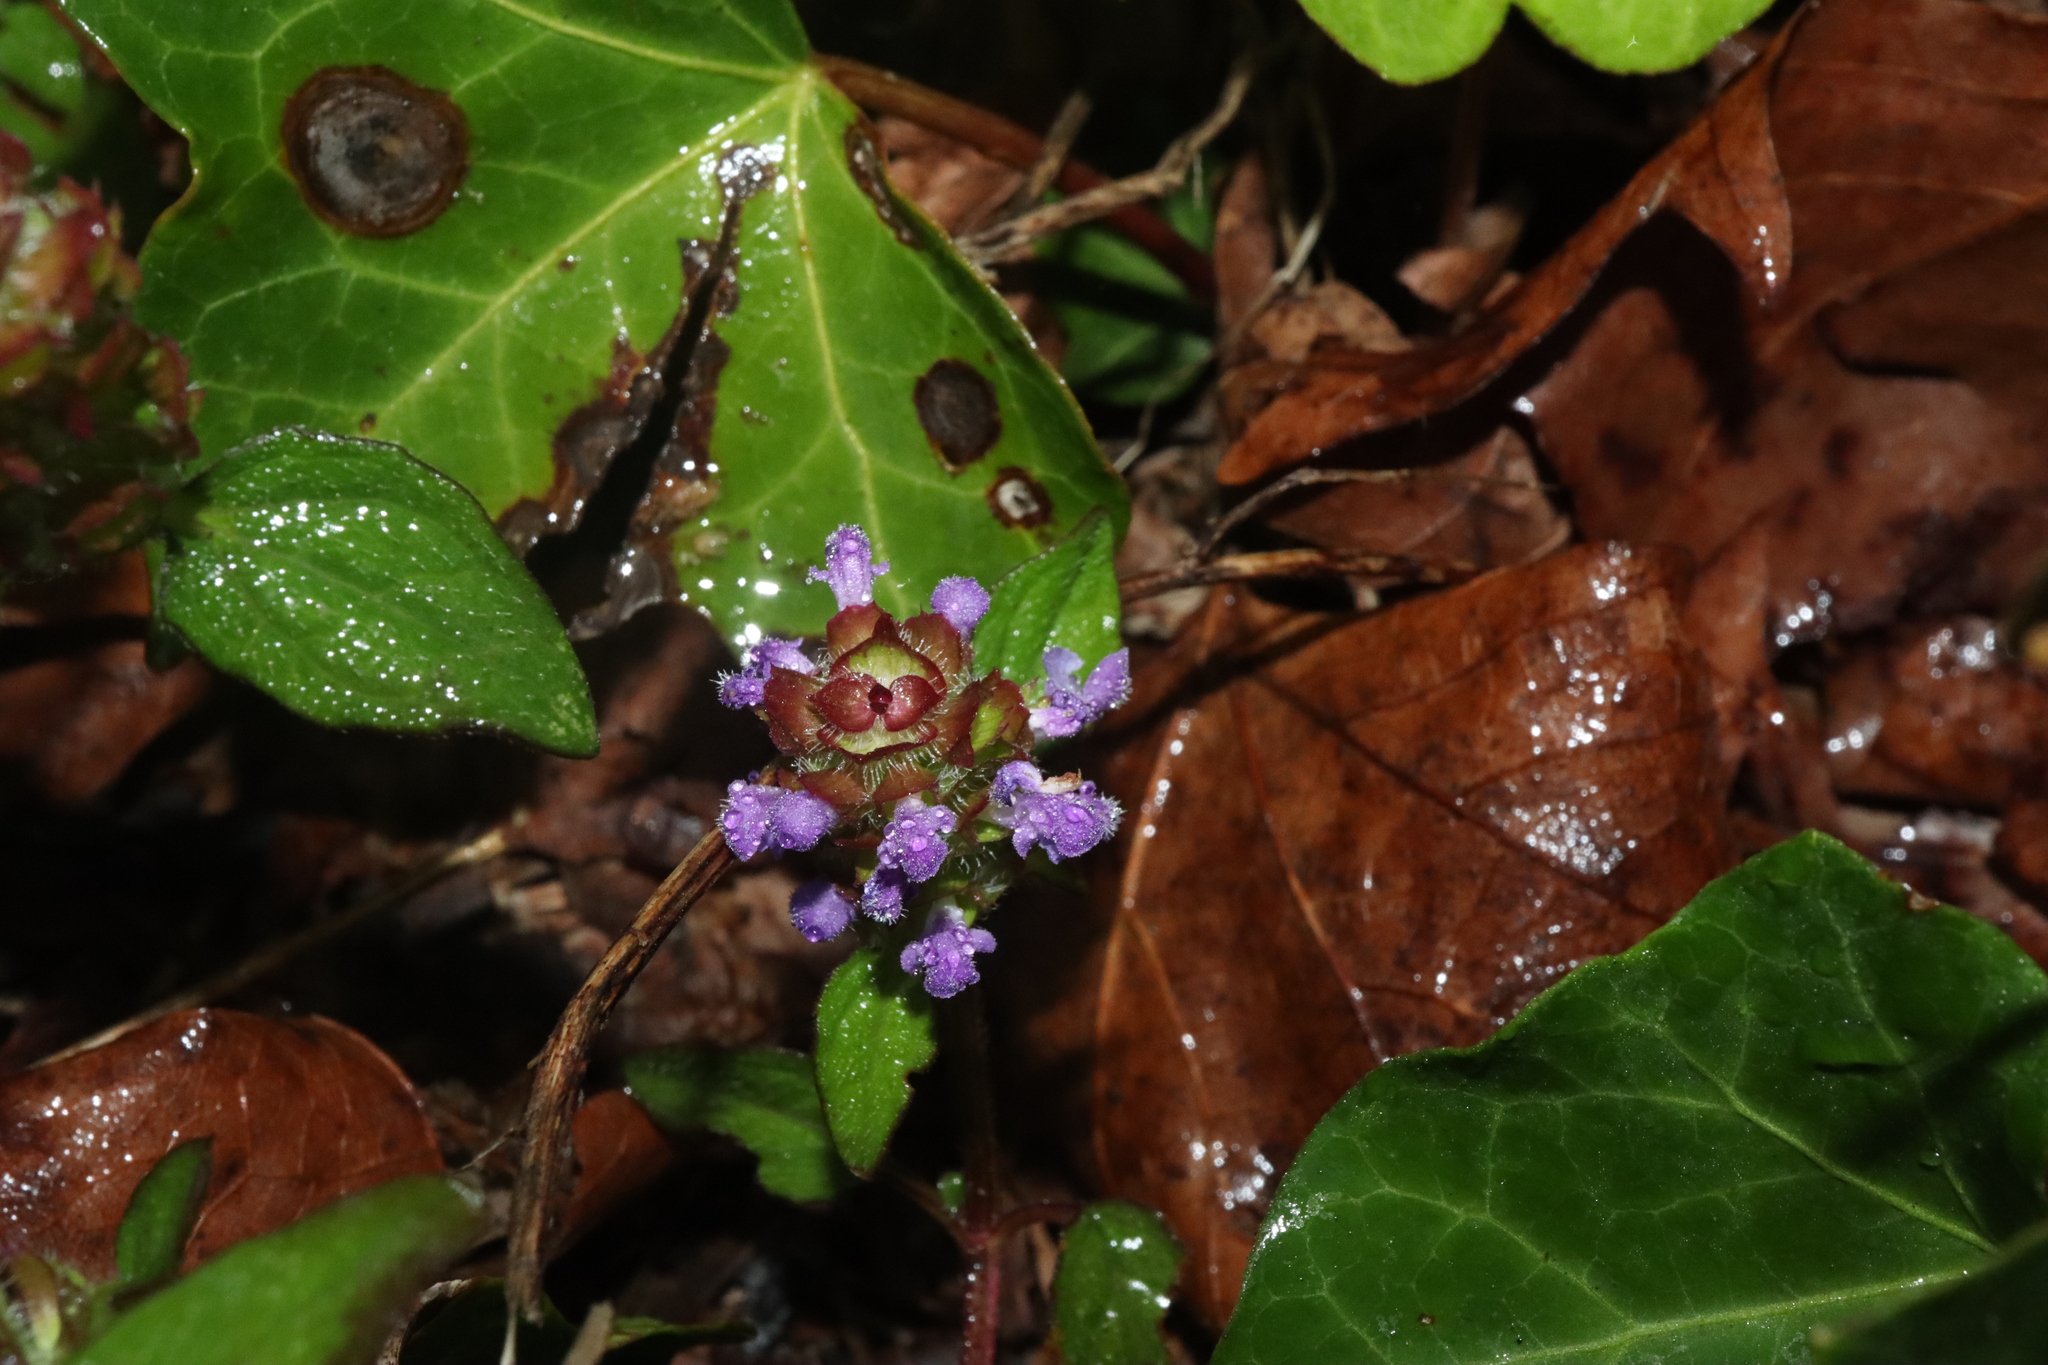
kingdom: Plantae
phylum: Tracheophyta
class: Magnoliopsida
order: Lamiales
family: Lamiaceae
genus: Prunella
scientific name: Prunella vulgaris
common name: Heal-all
